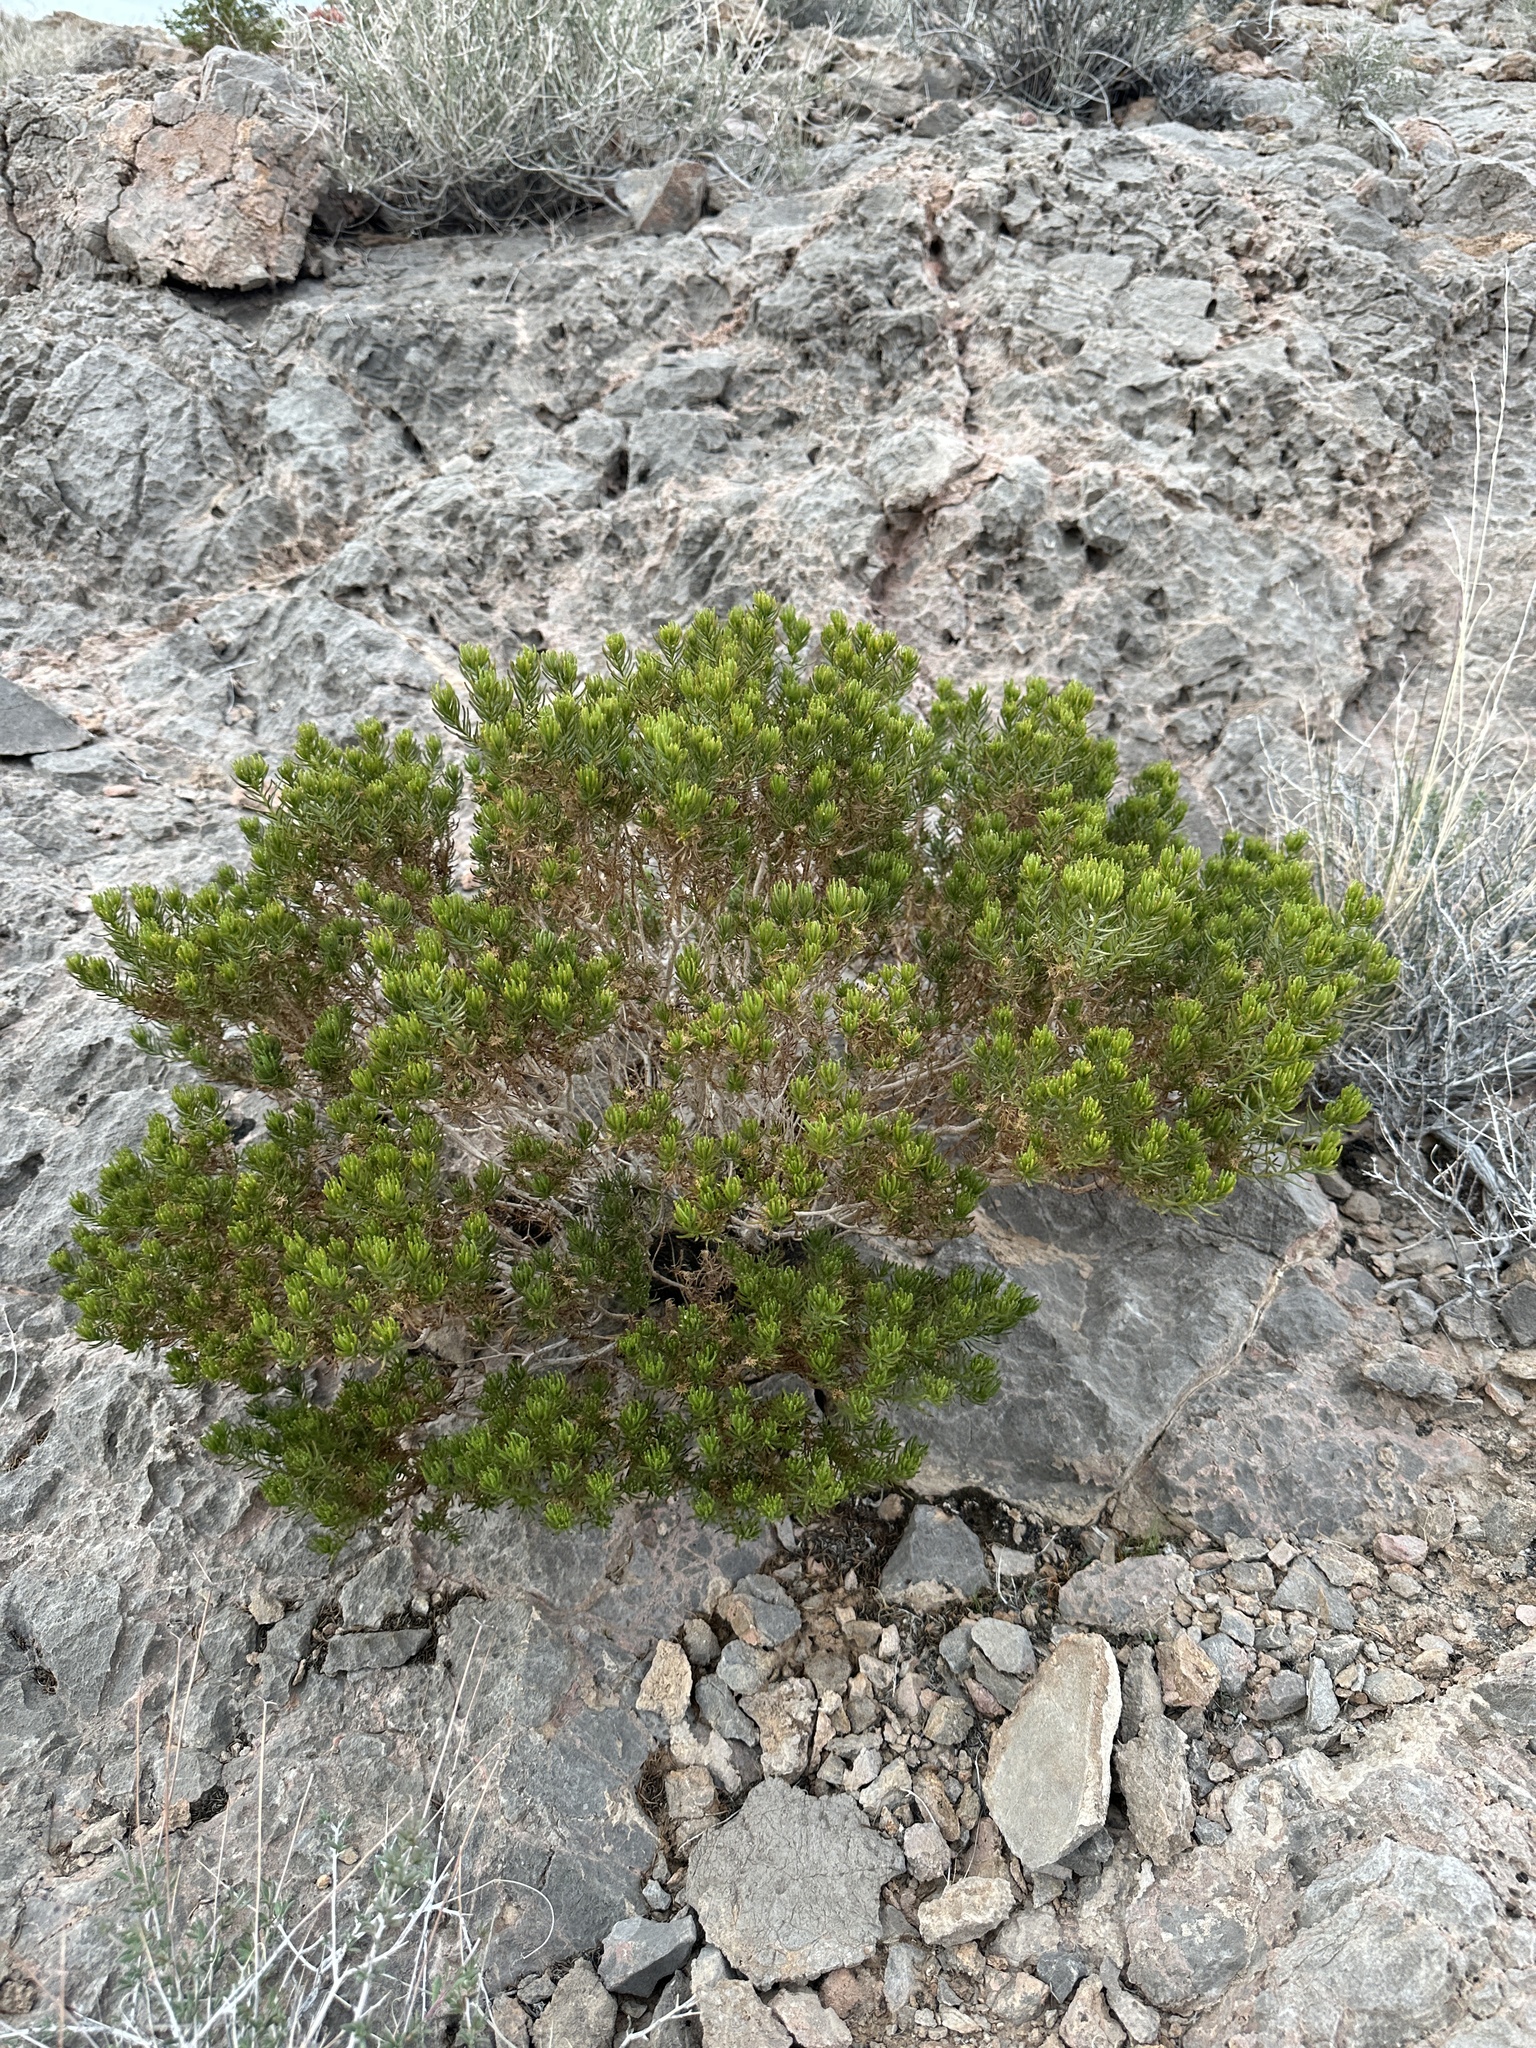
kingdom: Plantae
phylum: Tracheophyta
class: Magnoliopsida
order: Asterales
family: Asteraceae
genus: Peucephyllum
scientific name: Peucephyllum schottii
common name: Pygmy-cedar
